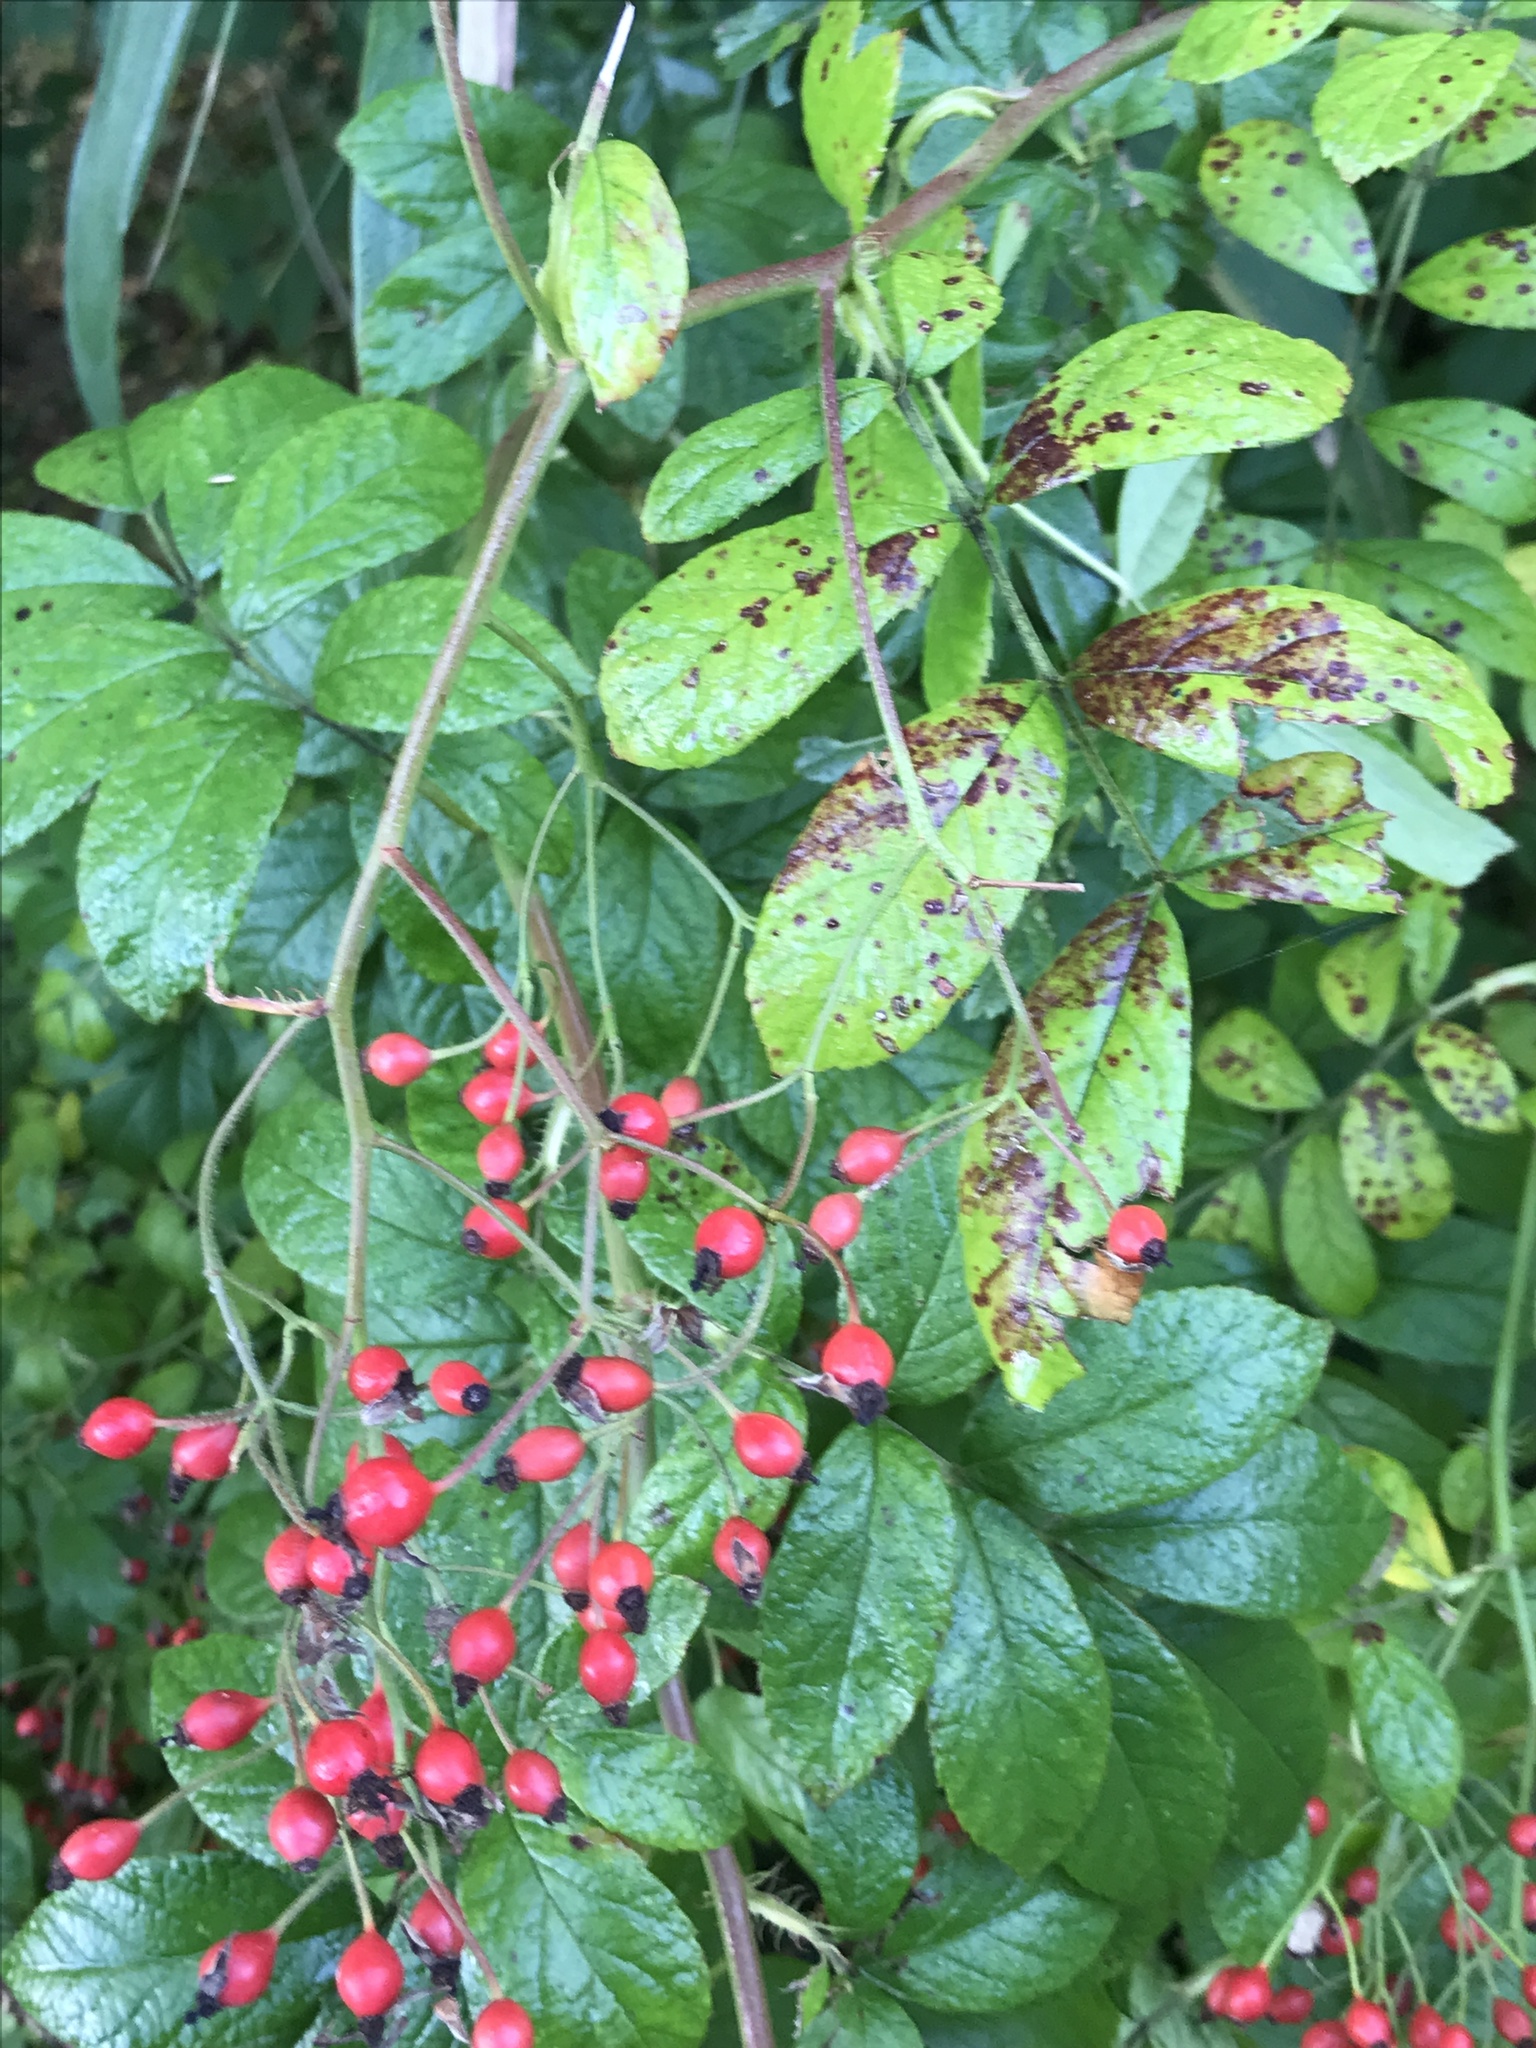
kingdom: Plantae
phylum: Tracheophyta
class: Magnoliopsida
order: Rosales
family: Rosaceae
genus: Rosa
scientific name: Rosa multiflora
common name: Multiflora rose
